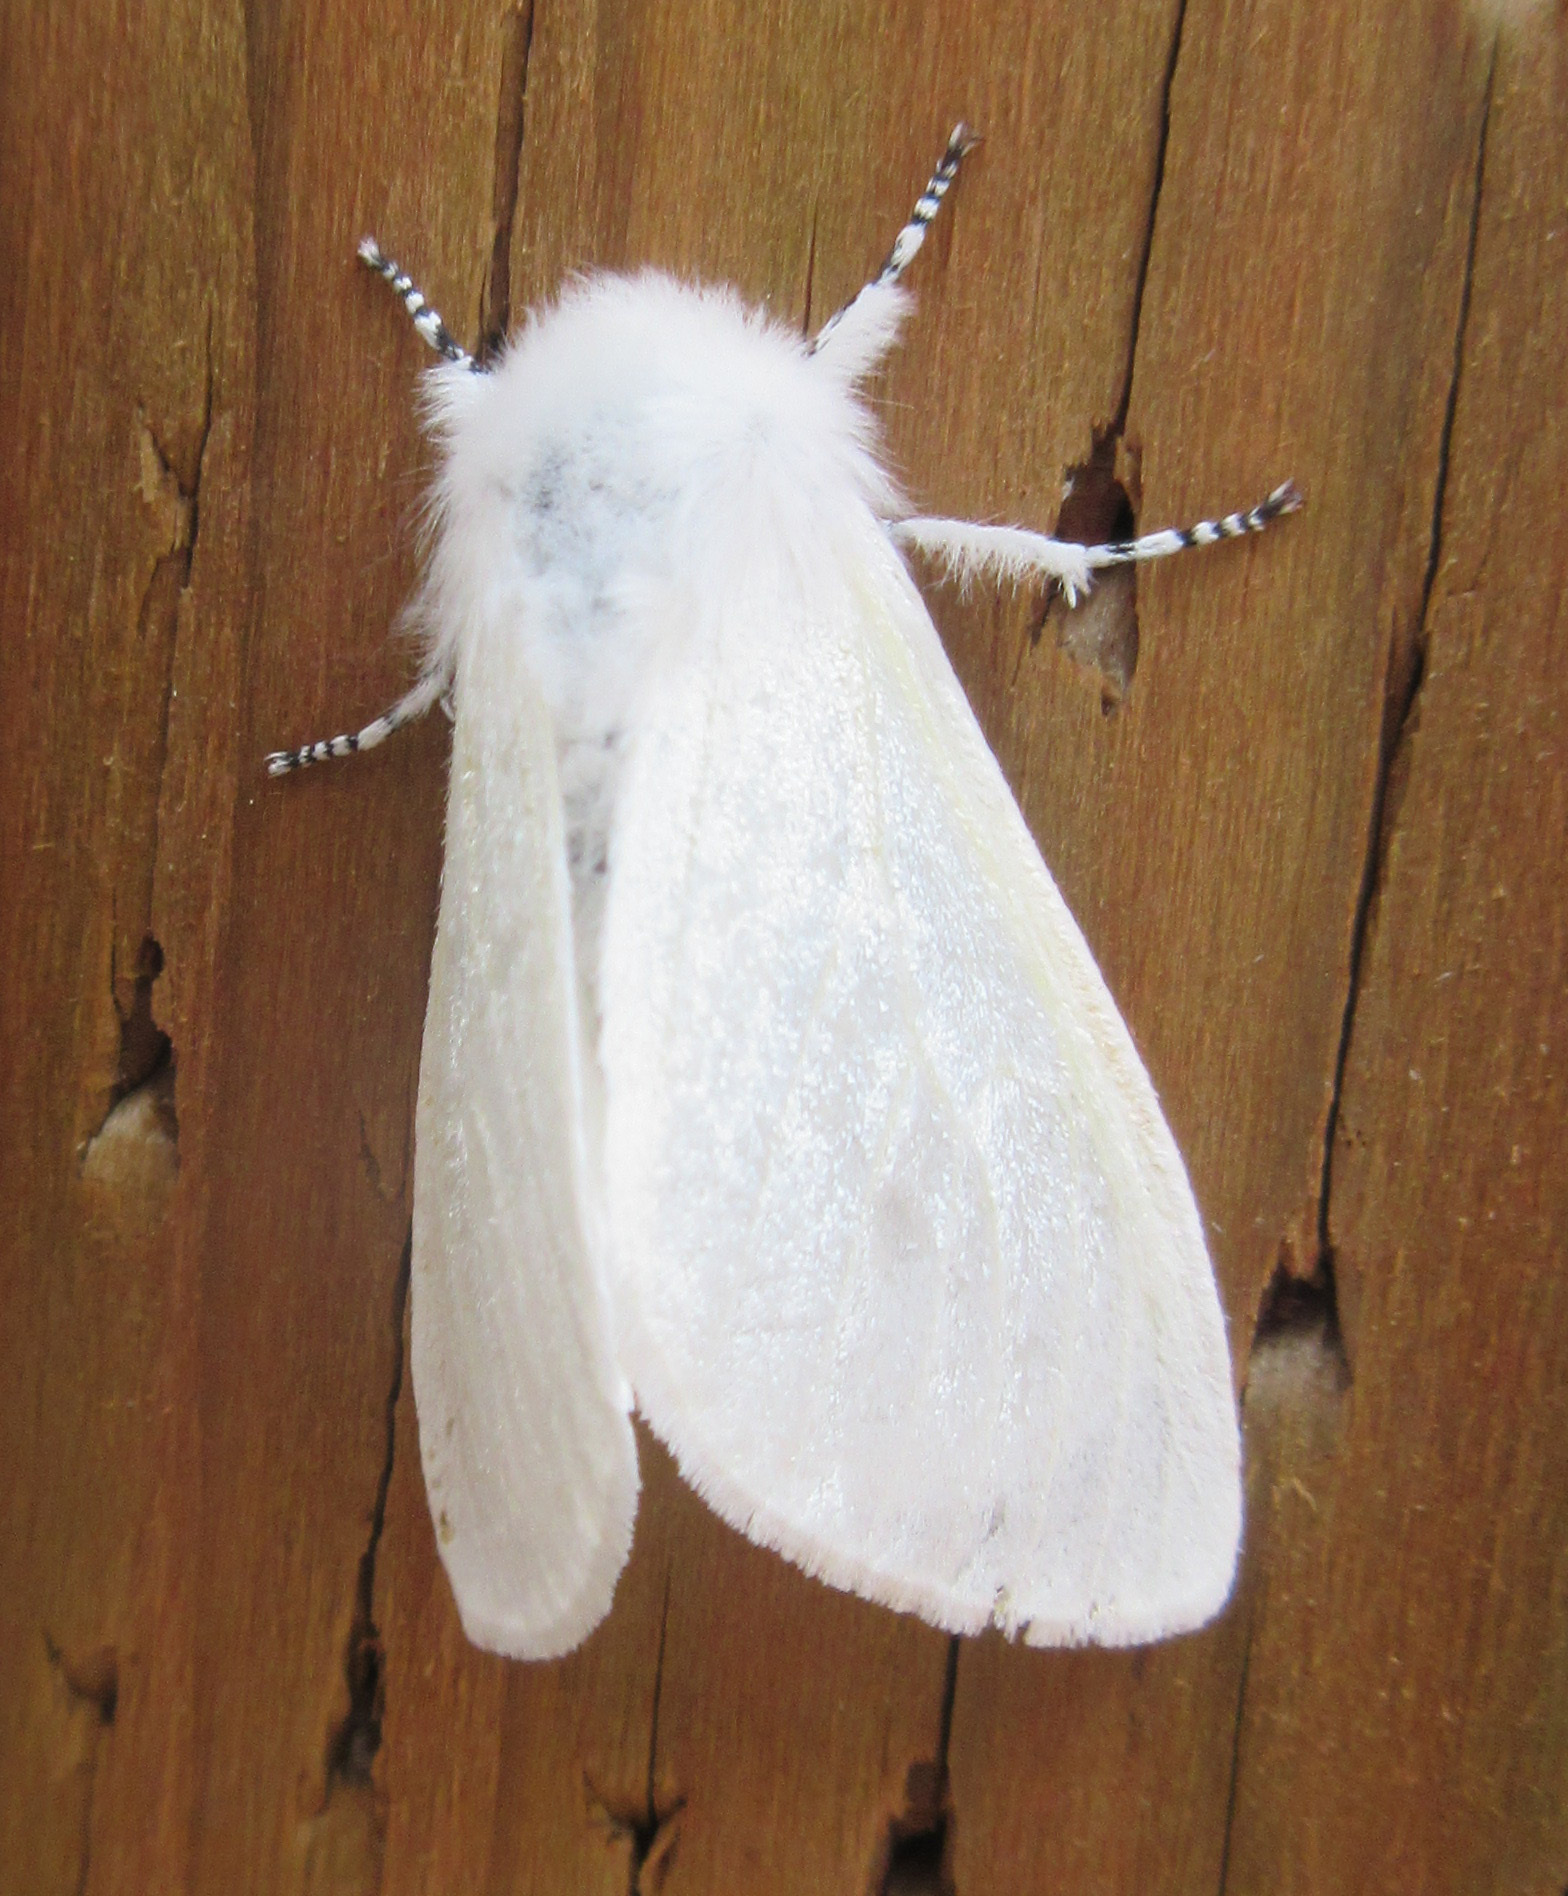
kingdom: Animalia
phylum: Arthropoda
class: Insecta
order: Lepidoptera
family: Erebidae
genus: Leucoma
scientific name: Leucoma salicis
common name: White satin moth
